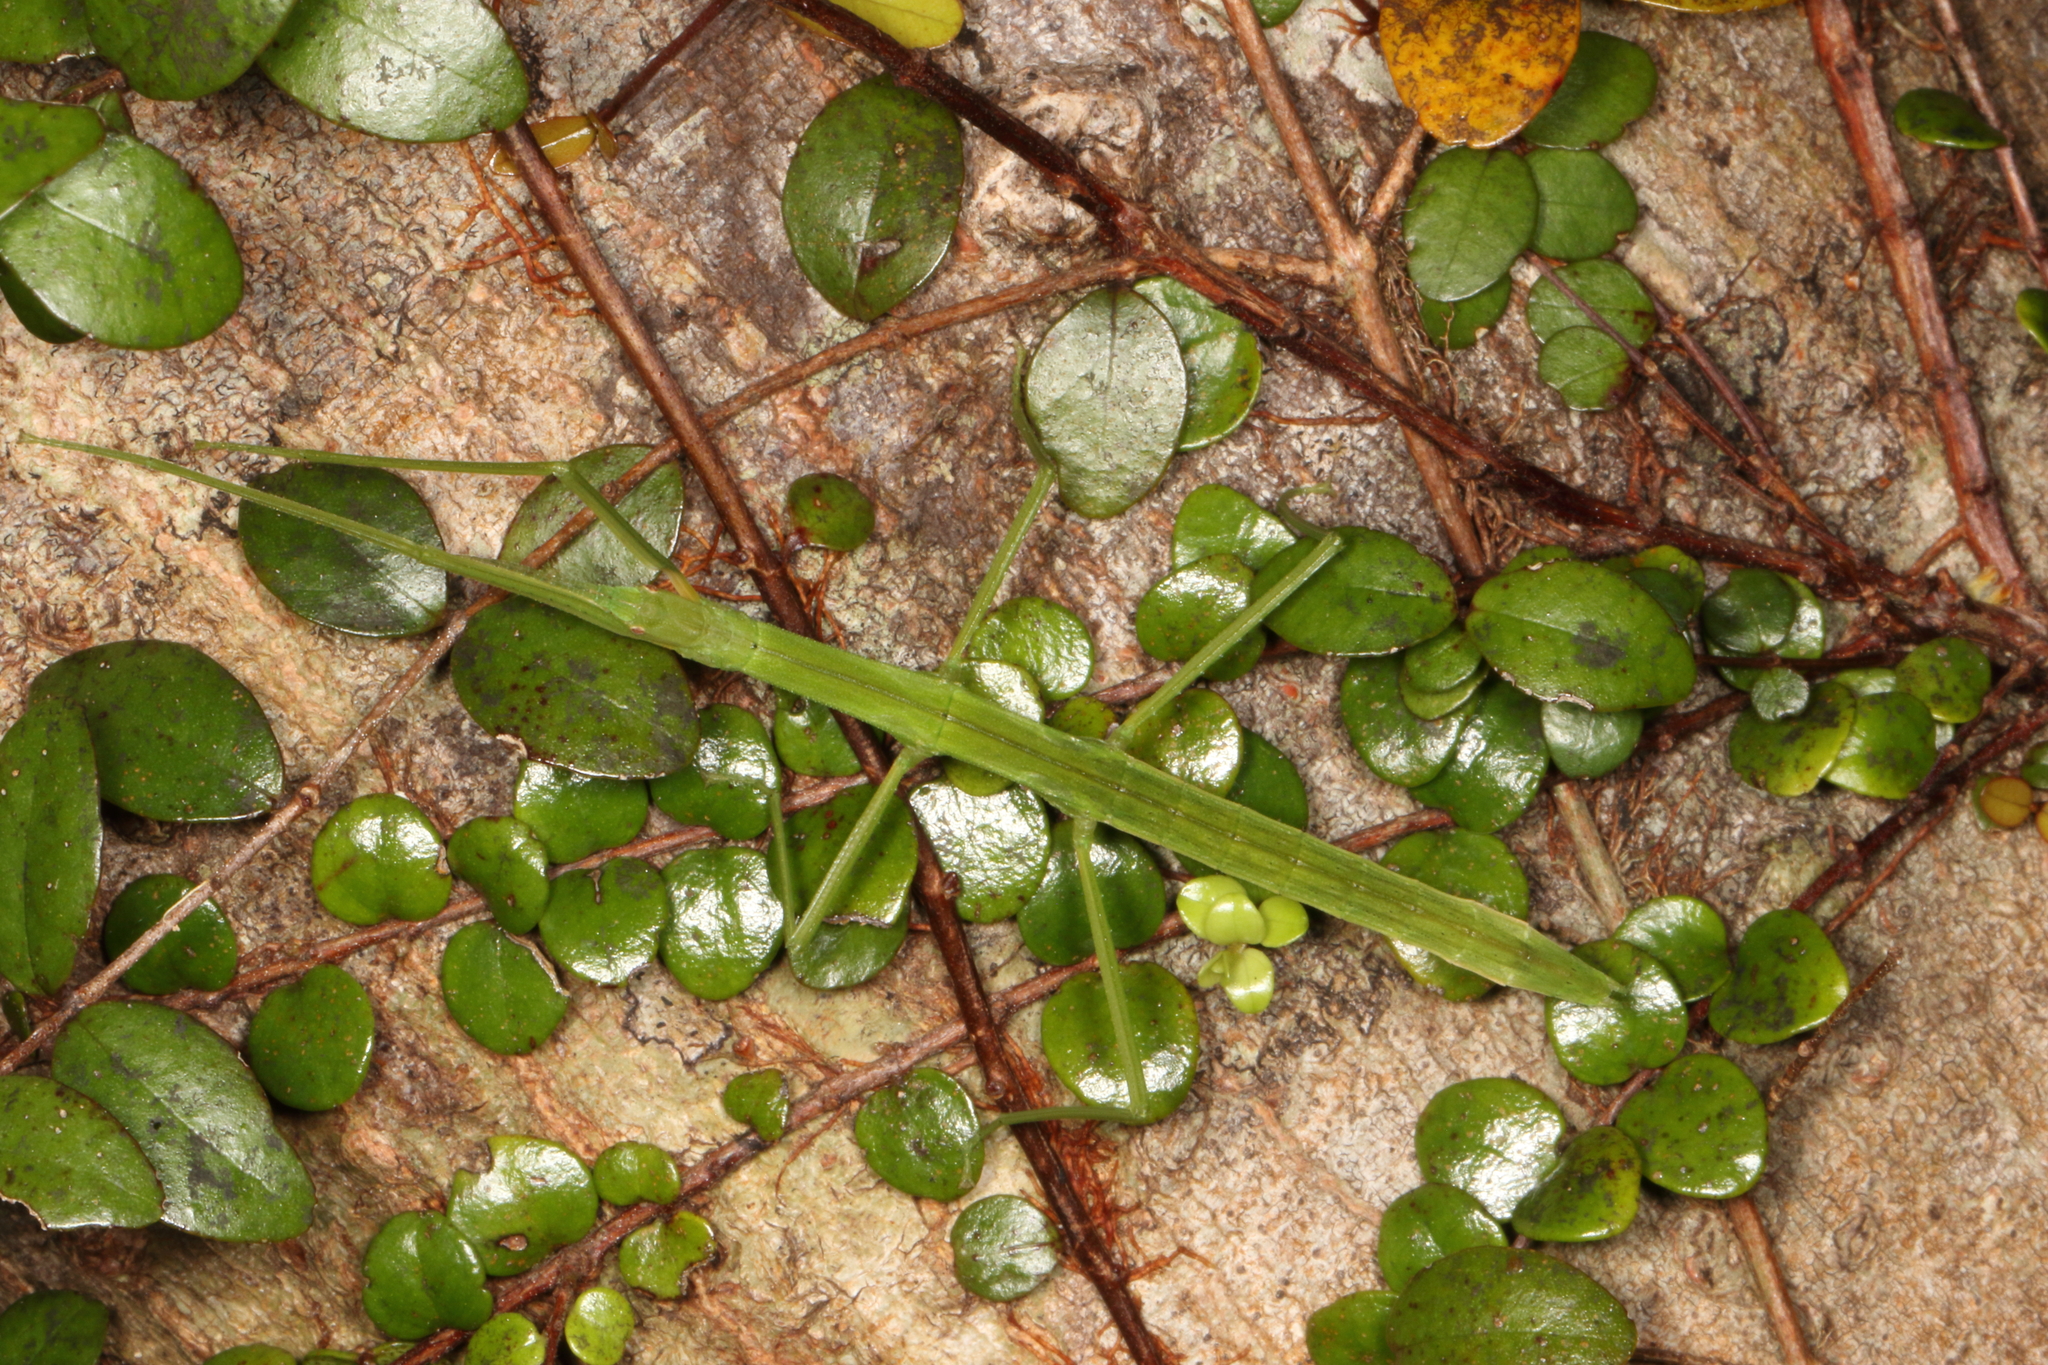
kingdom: Animalia
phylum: Arthropoda
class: Insecta
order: Phasmida
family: Phasmatidae
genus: Tectarchus
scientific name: Tectarchus huttoni
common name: The common ridge-backed stick insect
